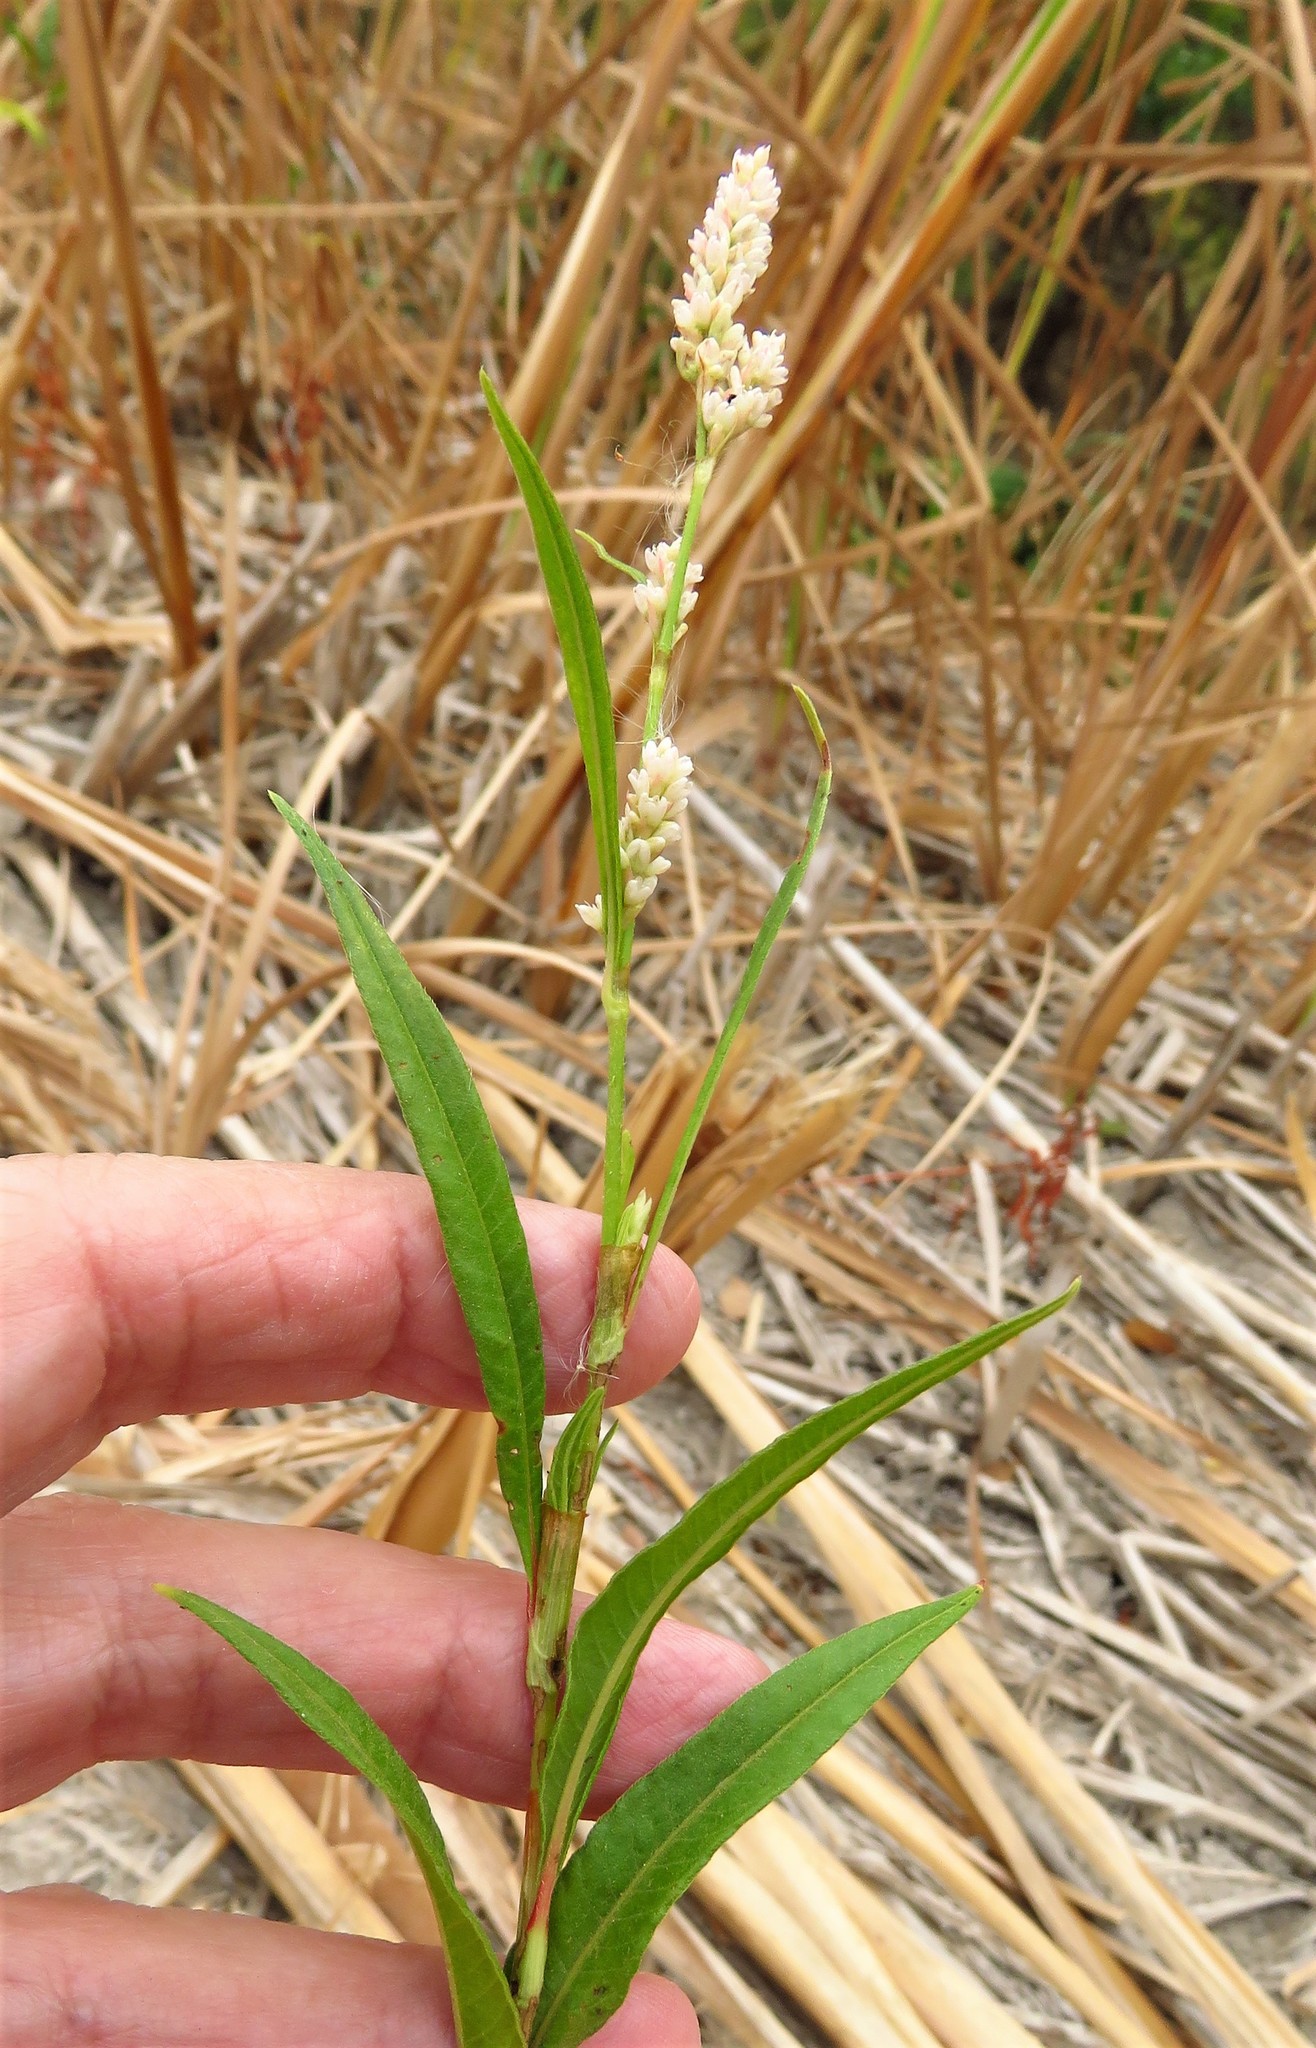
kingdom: Plantae
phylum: Tracheophyta
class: Magnoliopsida
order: Caryophyllales
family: Polygonaceae
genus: Persicaria
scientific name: Persicaria lapathifolia
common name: Curlytop knotweed
